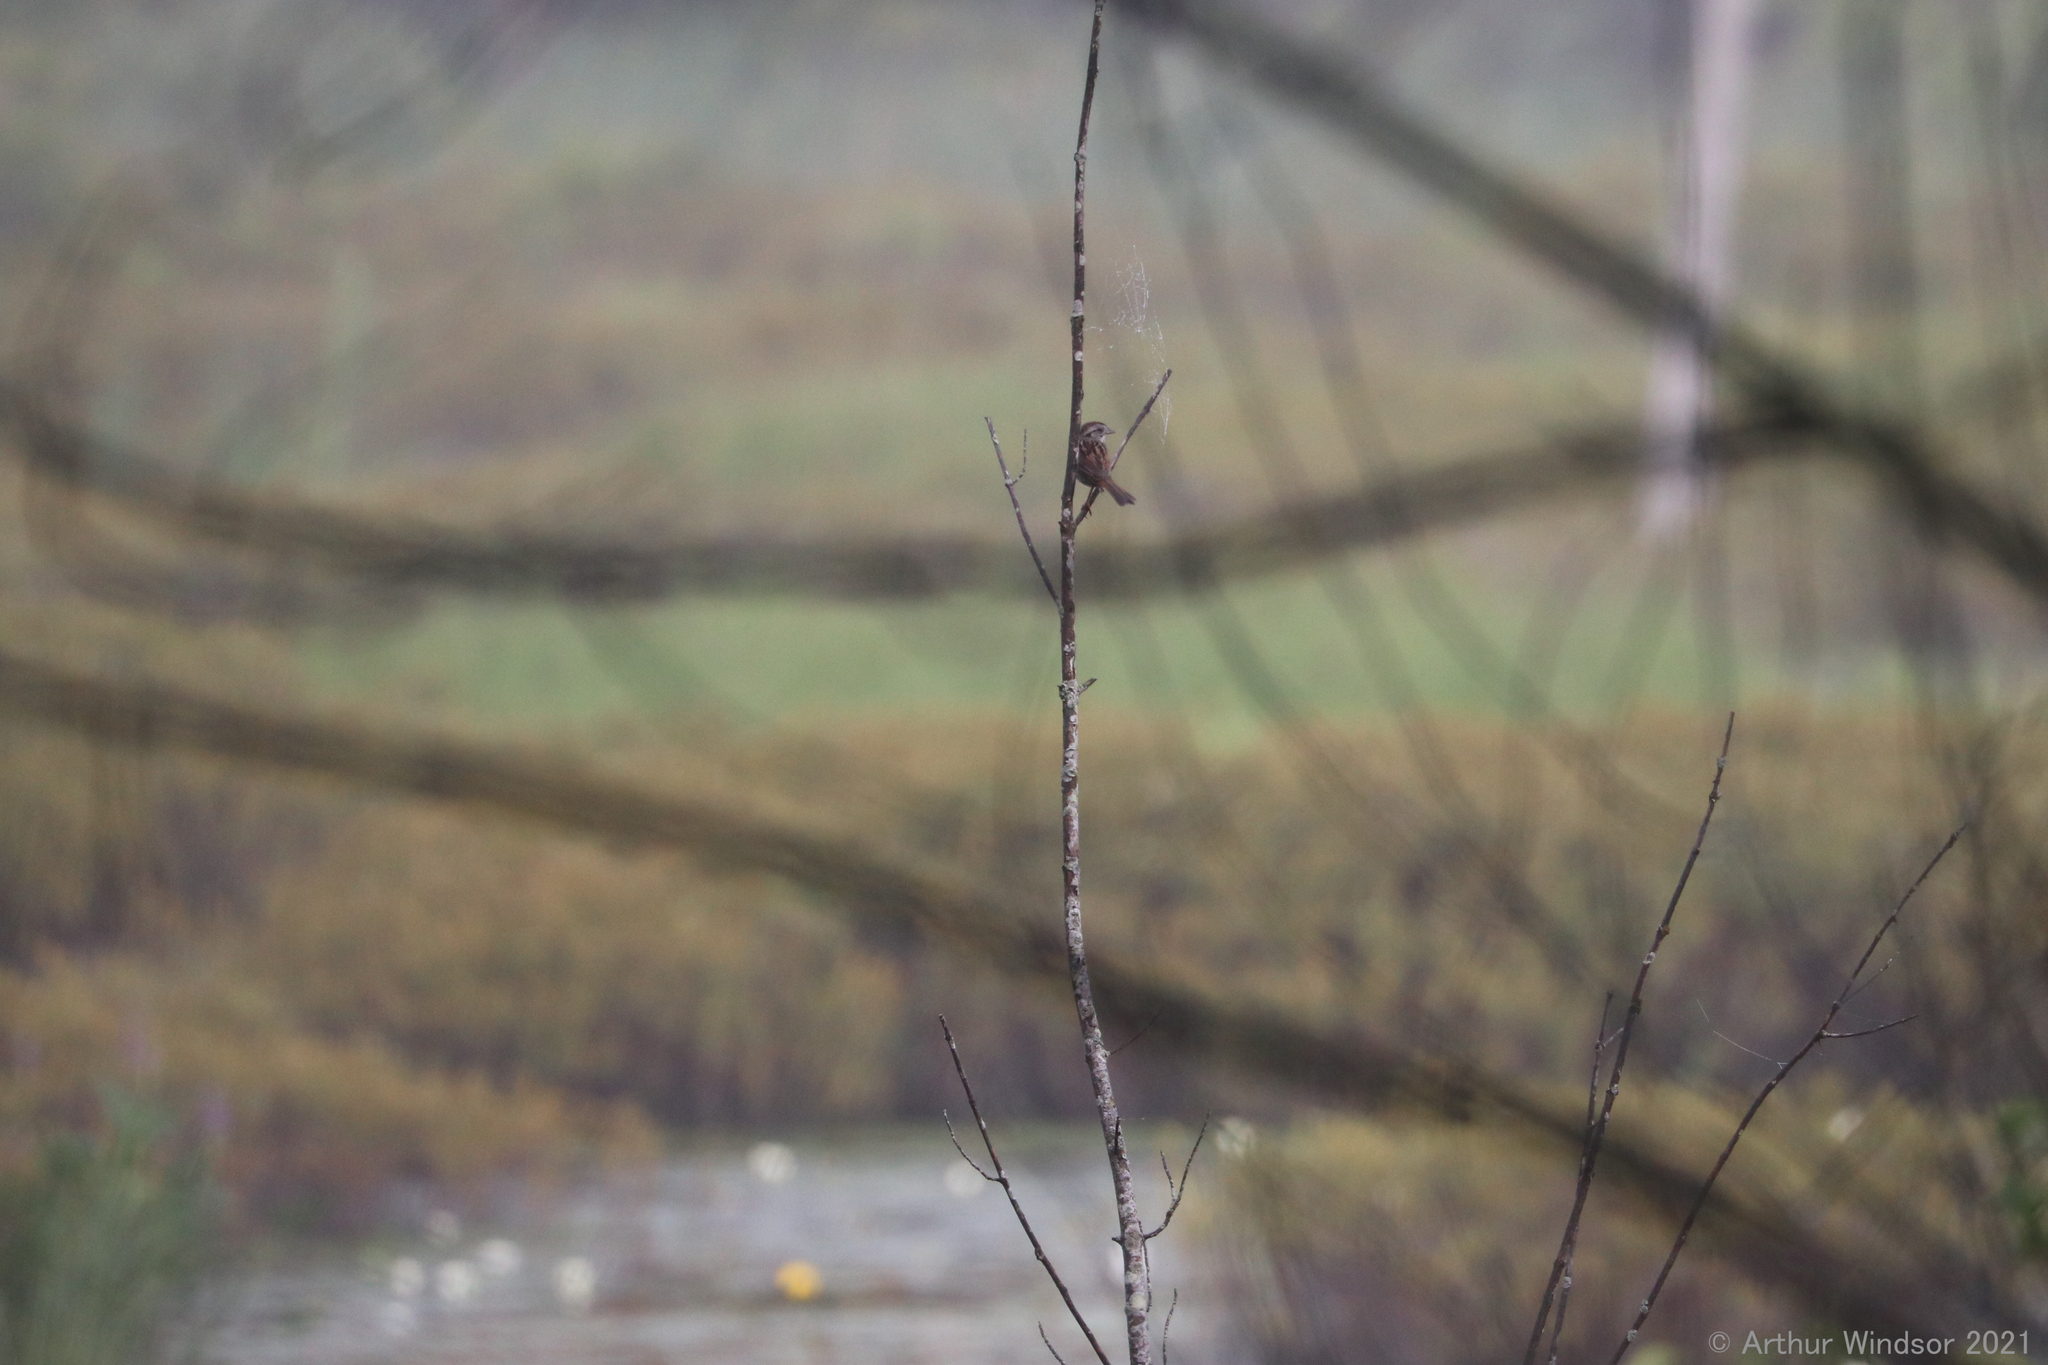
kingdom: Animalia
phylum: Chordata
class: Aves
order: Passeriformes
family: Passerellidae
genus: Melospiza
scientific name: Melospiza georgiana
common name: Swamp sparrow
